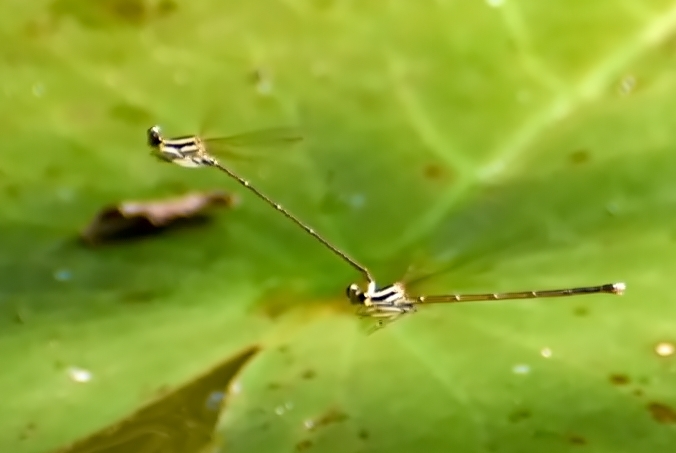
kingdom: Animalia
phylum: Arthropoda
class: Insecta
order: Odonata
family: Platycnemididae
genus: Pseudocopera
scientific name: Pseudocopera ciliata
